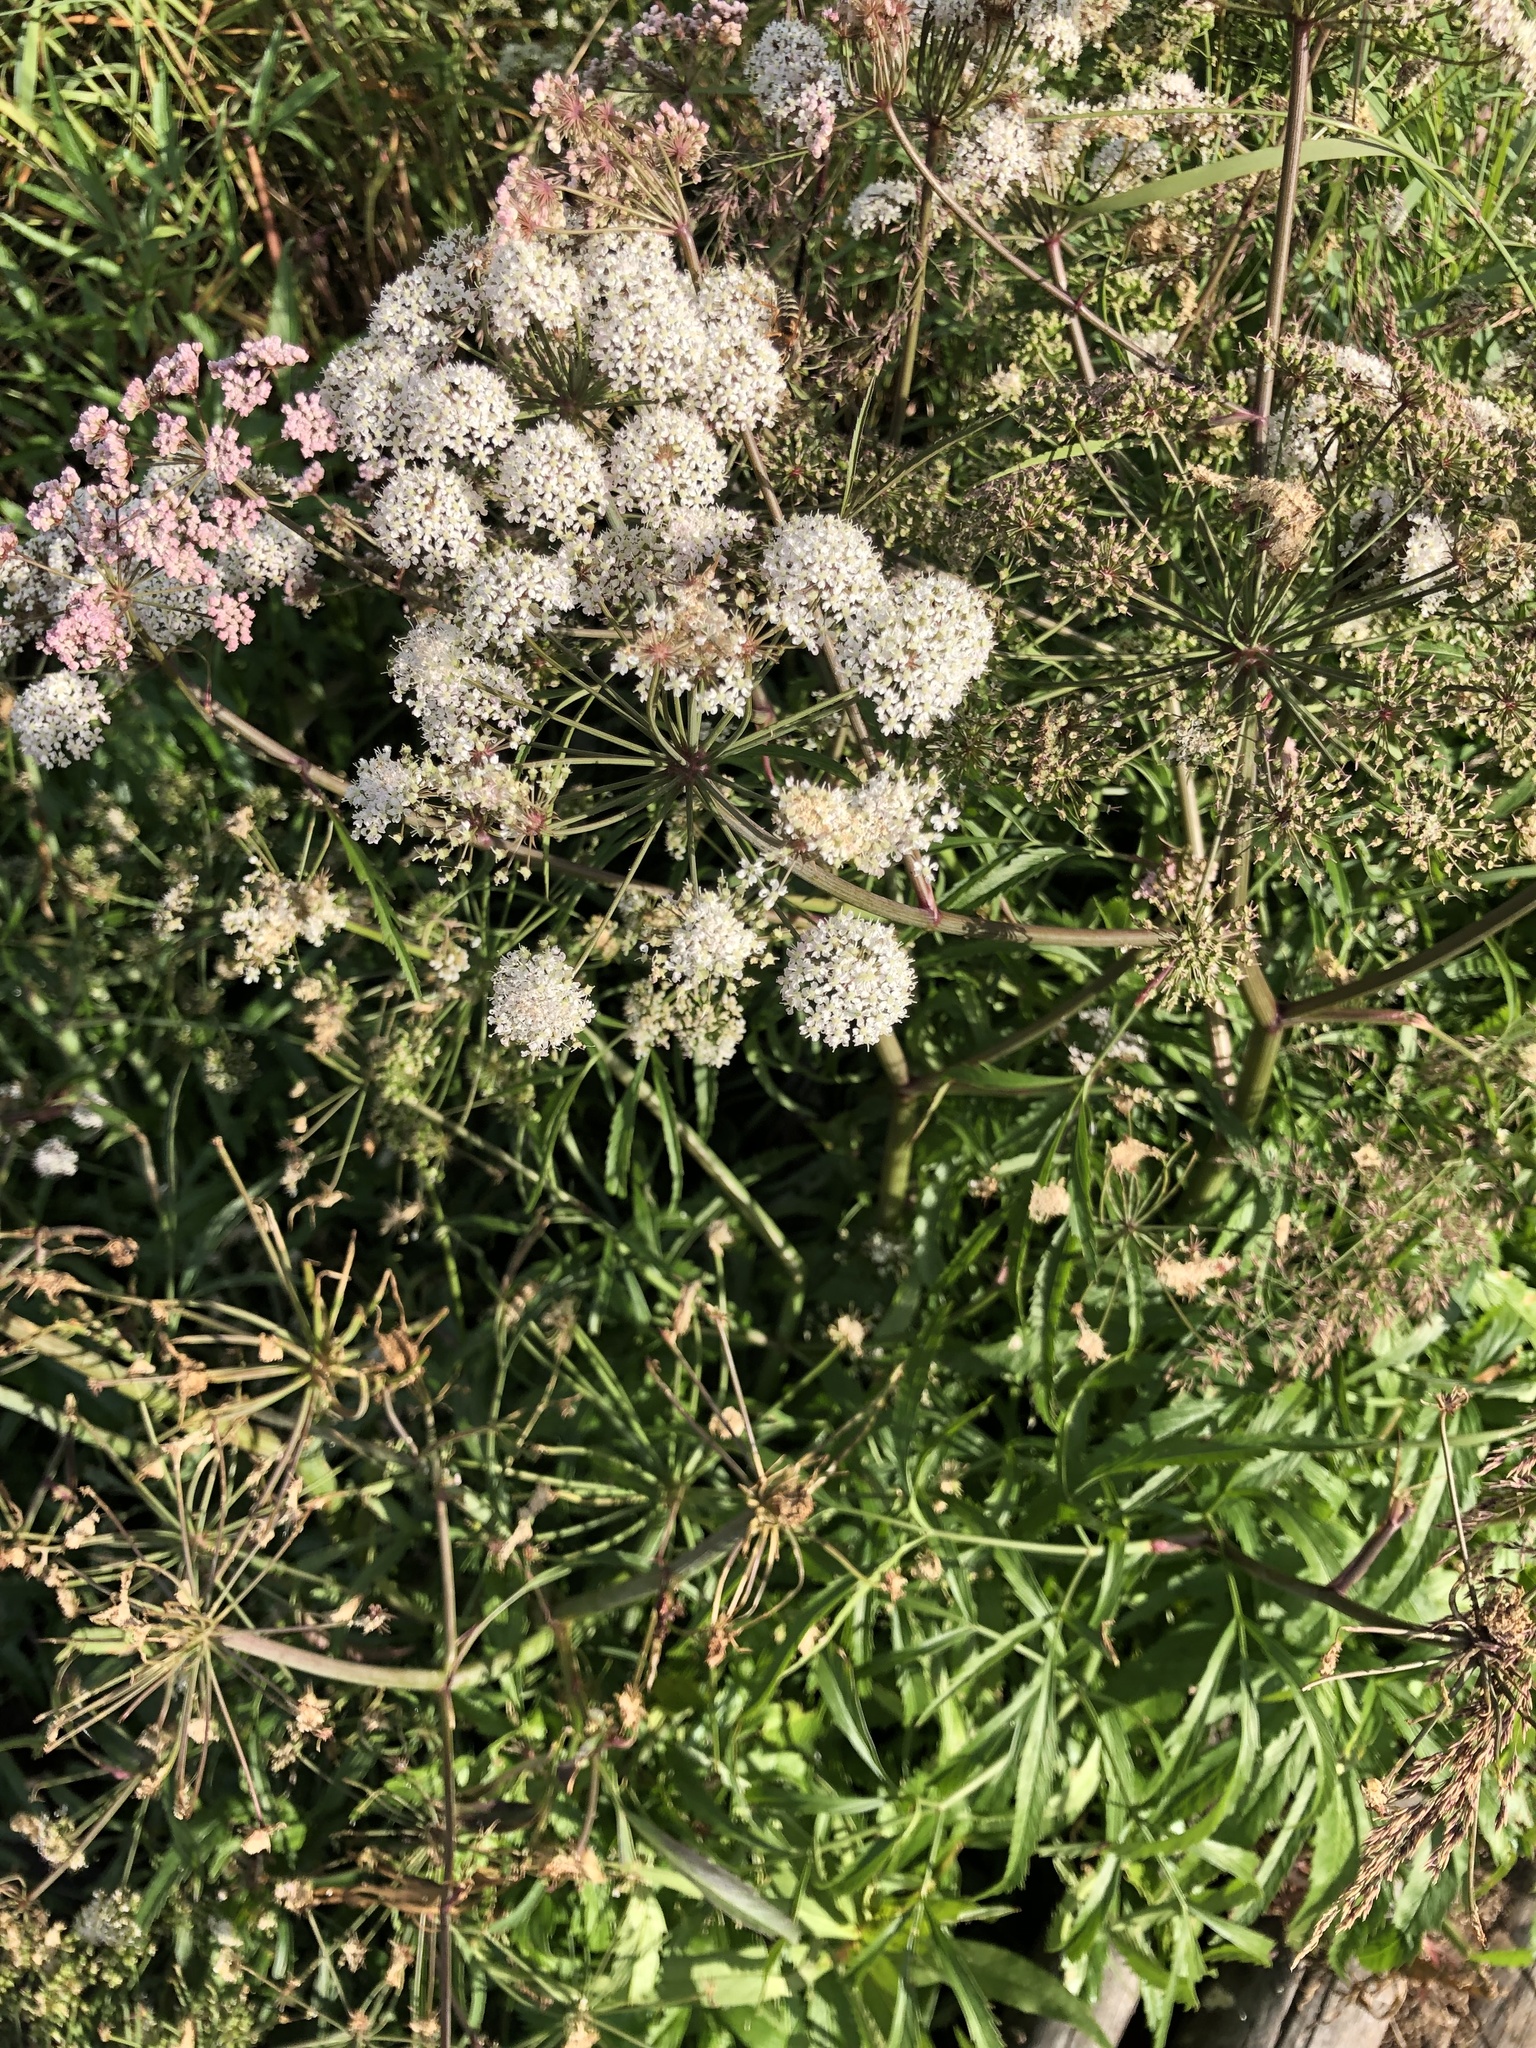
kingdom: Plantae
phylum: Tracheophyta
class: Magnoliopsida
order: Apiales
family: Apiaceae
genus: Cicuta
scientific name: Cicuta virosa
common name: Cowbane
